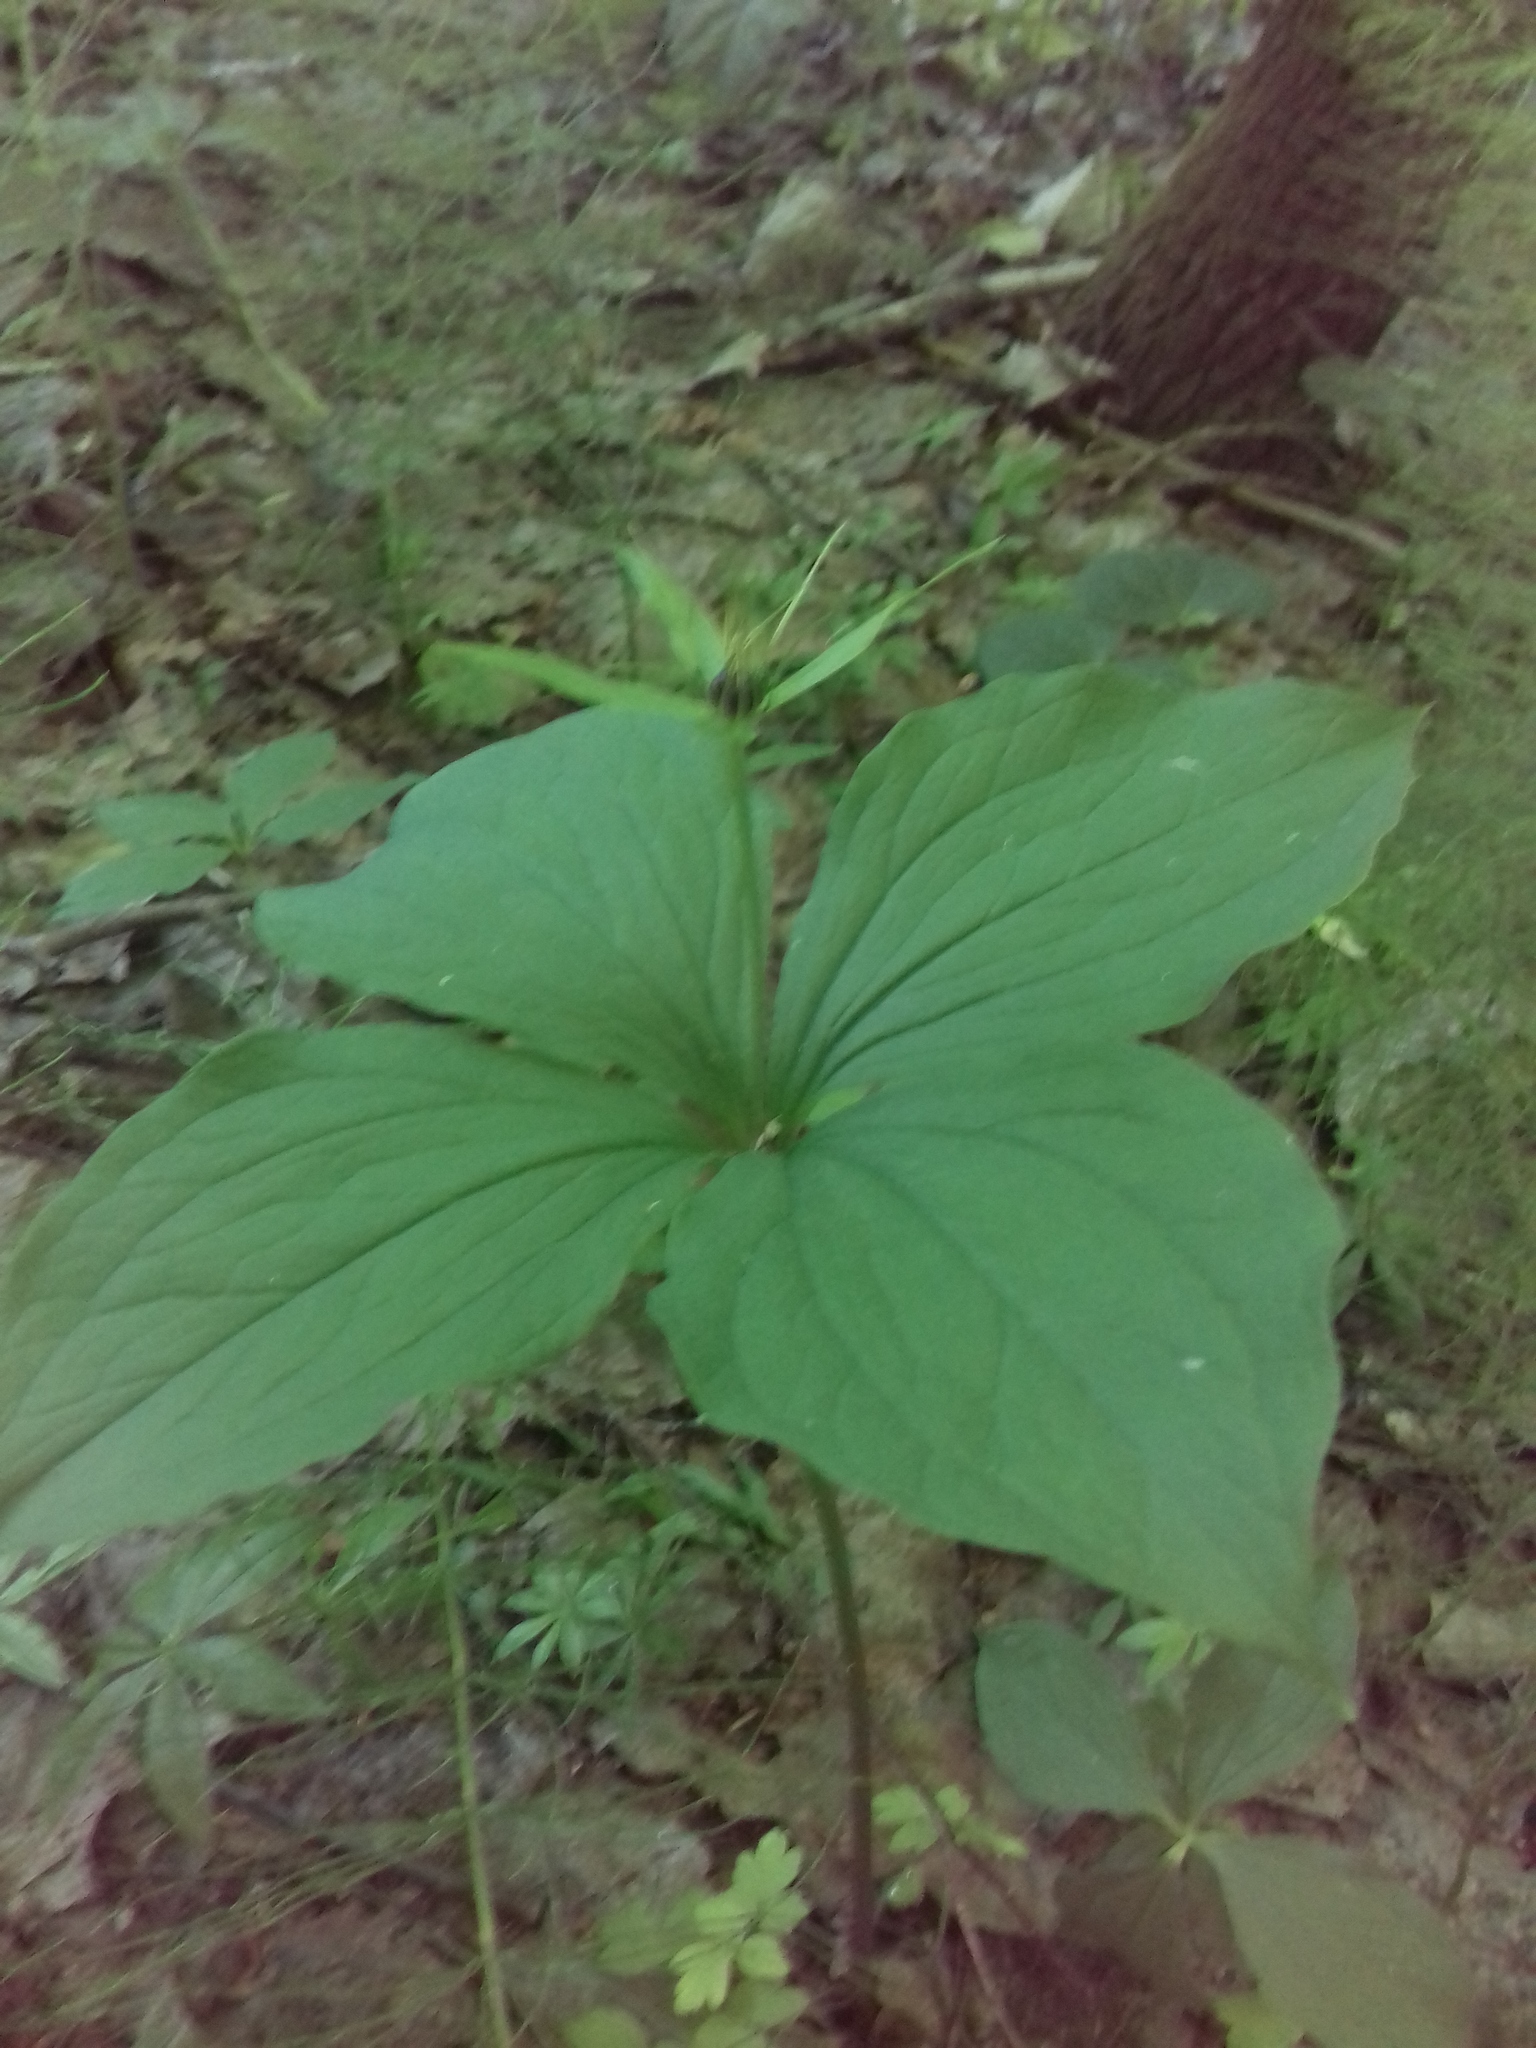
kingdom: Plantae
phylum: Tracheophyta
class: Liliopsida
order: Liliales
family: Melanthiaceae
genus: Paris
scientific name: Paris quadrifolia
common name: Herb-paris
